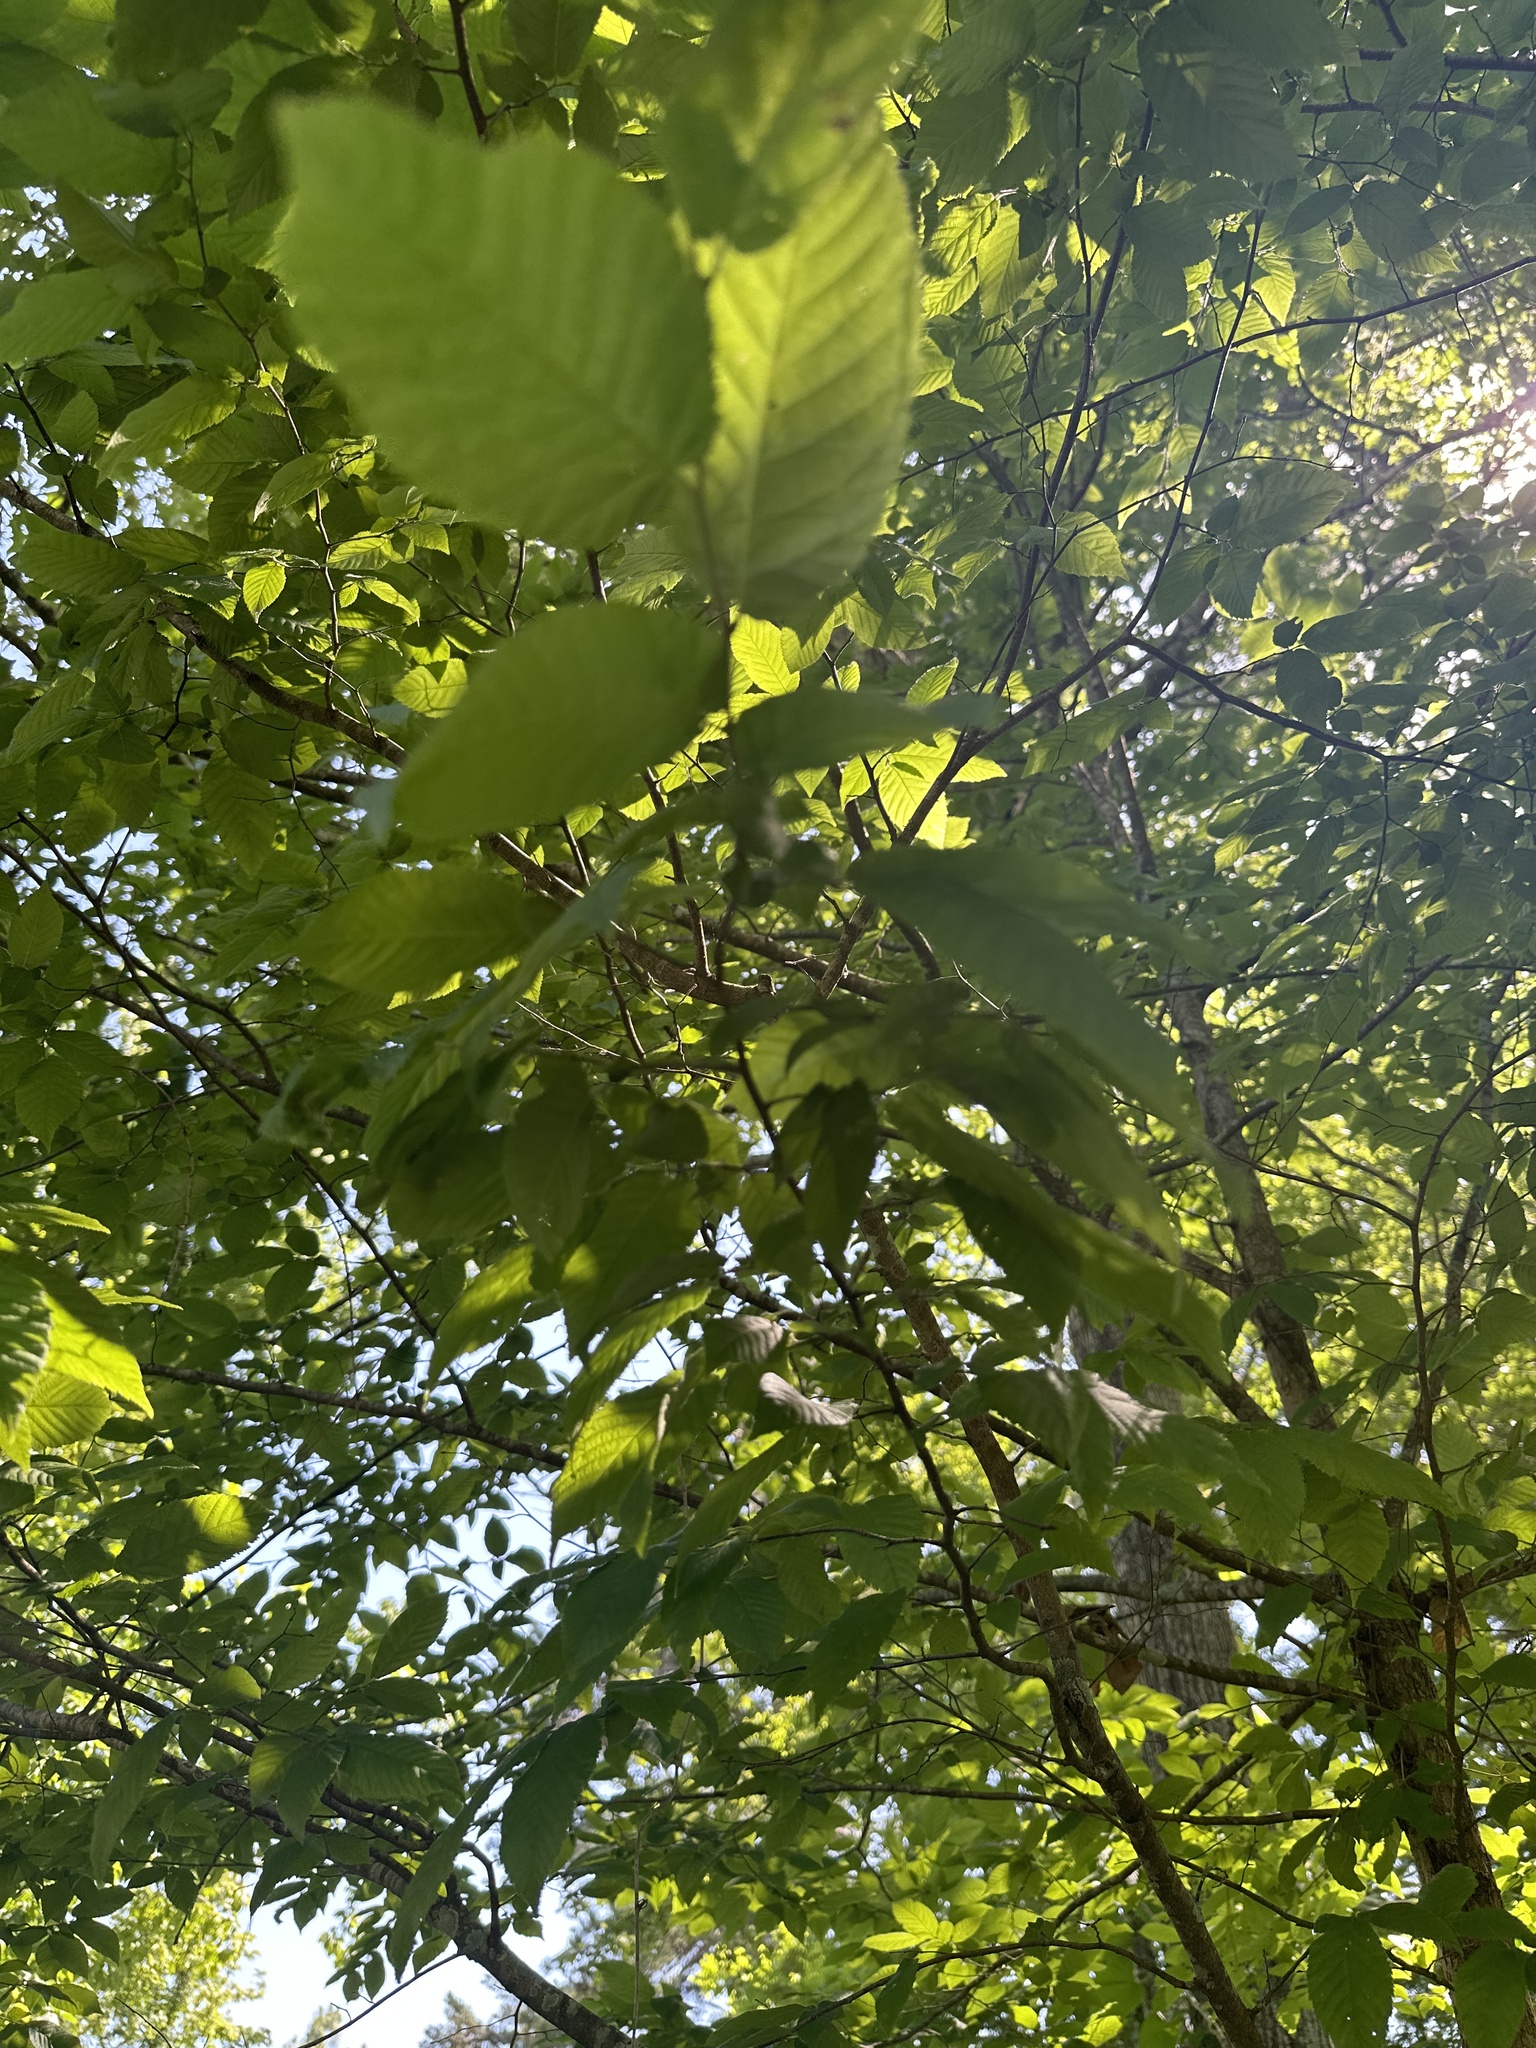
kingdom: Plantae
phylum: Tracheophyta
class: Magnoliopsida
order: Fagales
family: Betulaceae
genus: Ostrya
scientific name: Ostrya virginiana
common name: Ironwood
